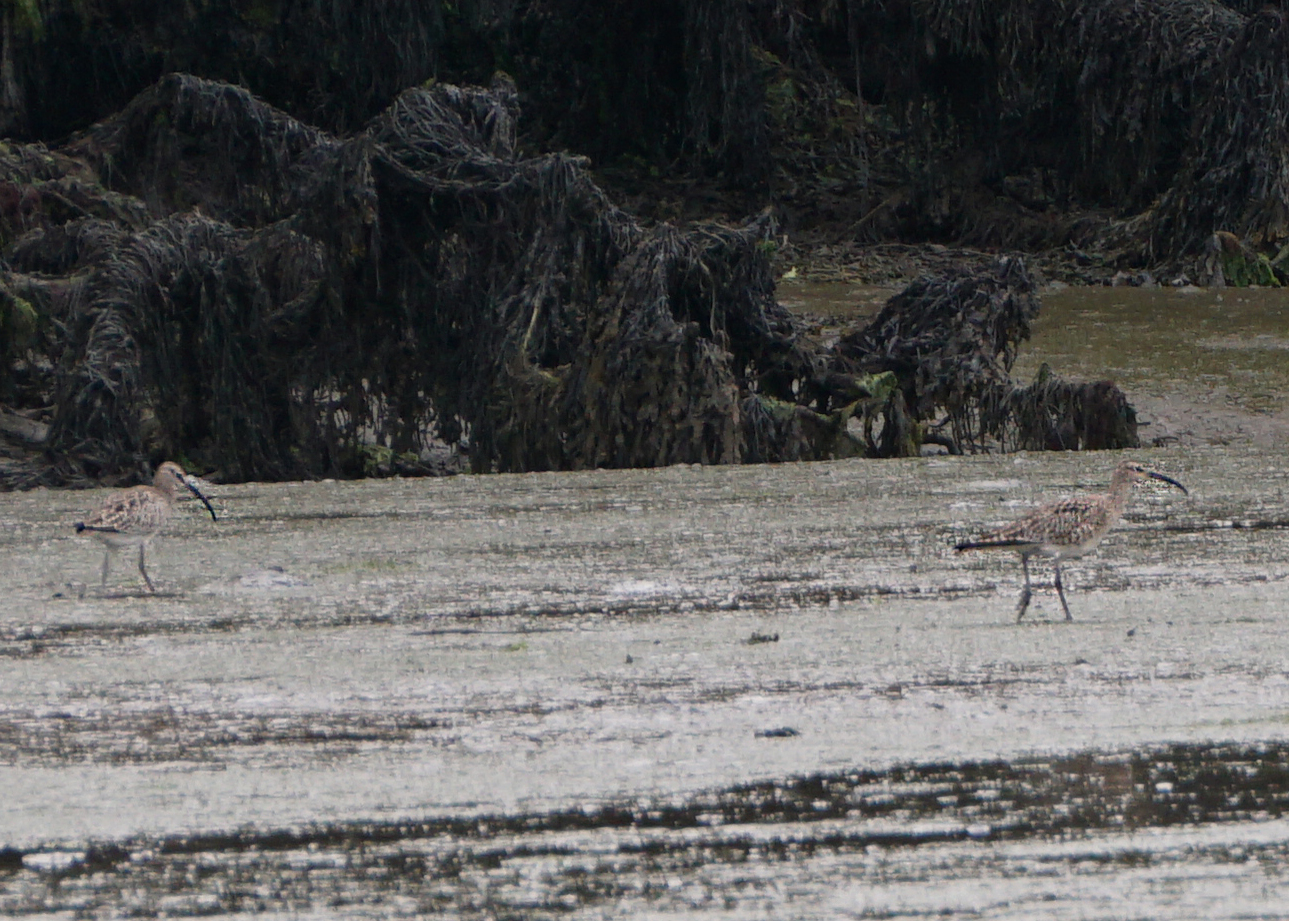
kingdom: Animalia
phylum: Chordata
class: Aves
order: Charadriiformes
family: Scolopacidae
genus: Numenius
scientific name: Numenius phaeopus
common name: Whimbrel
